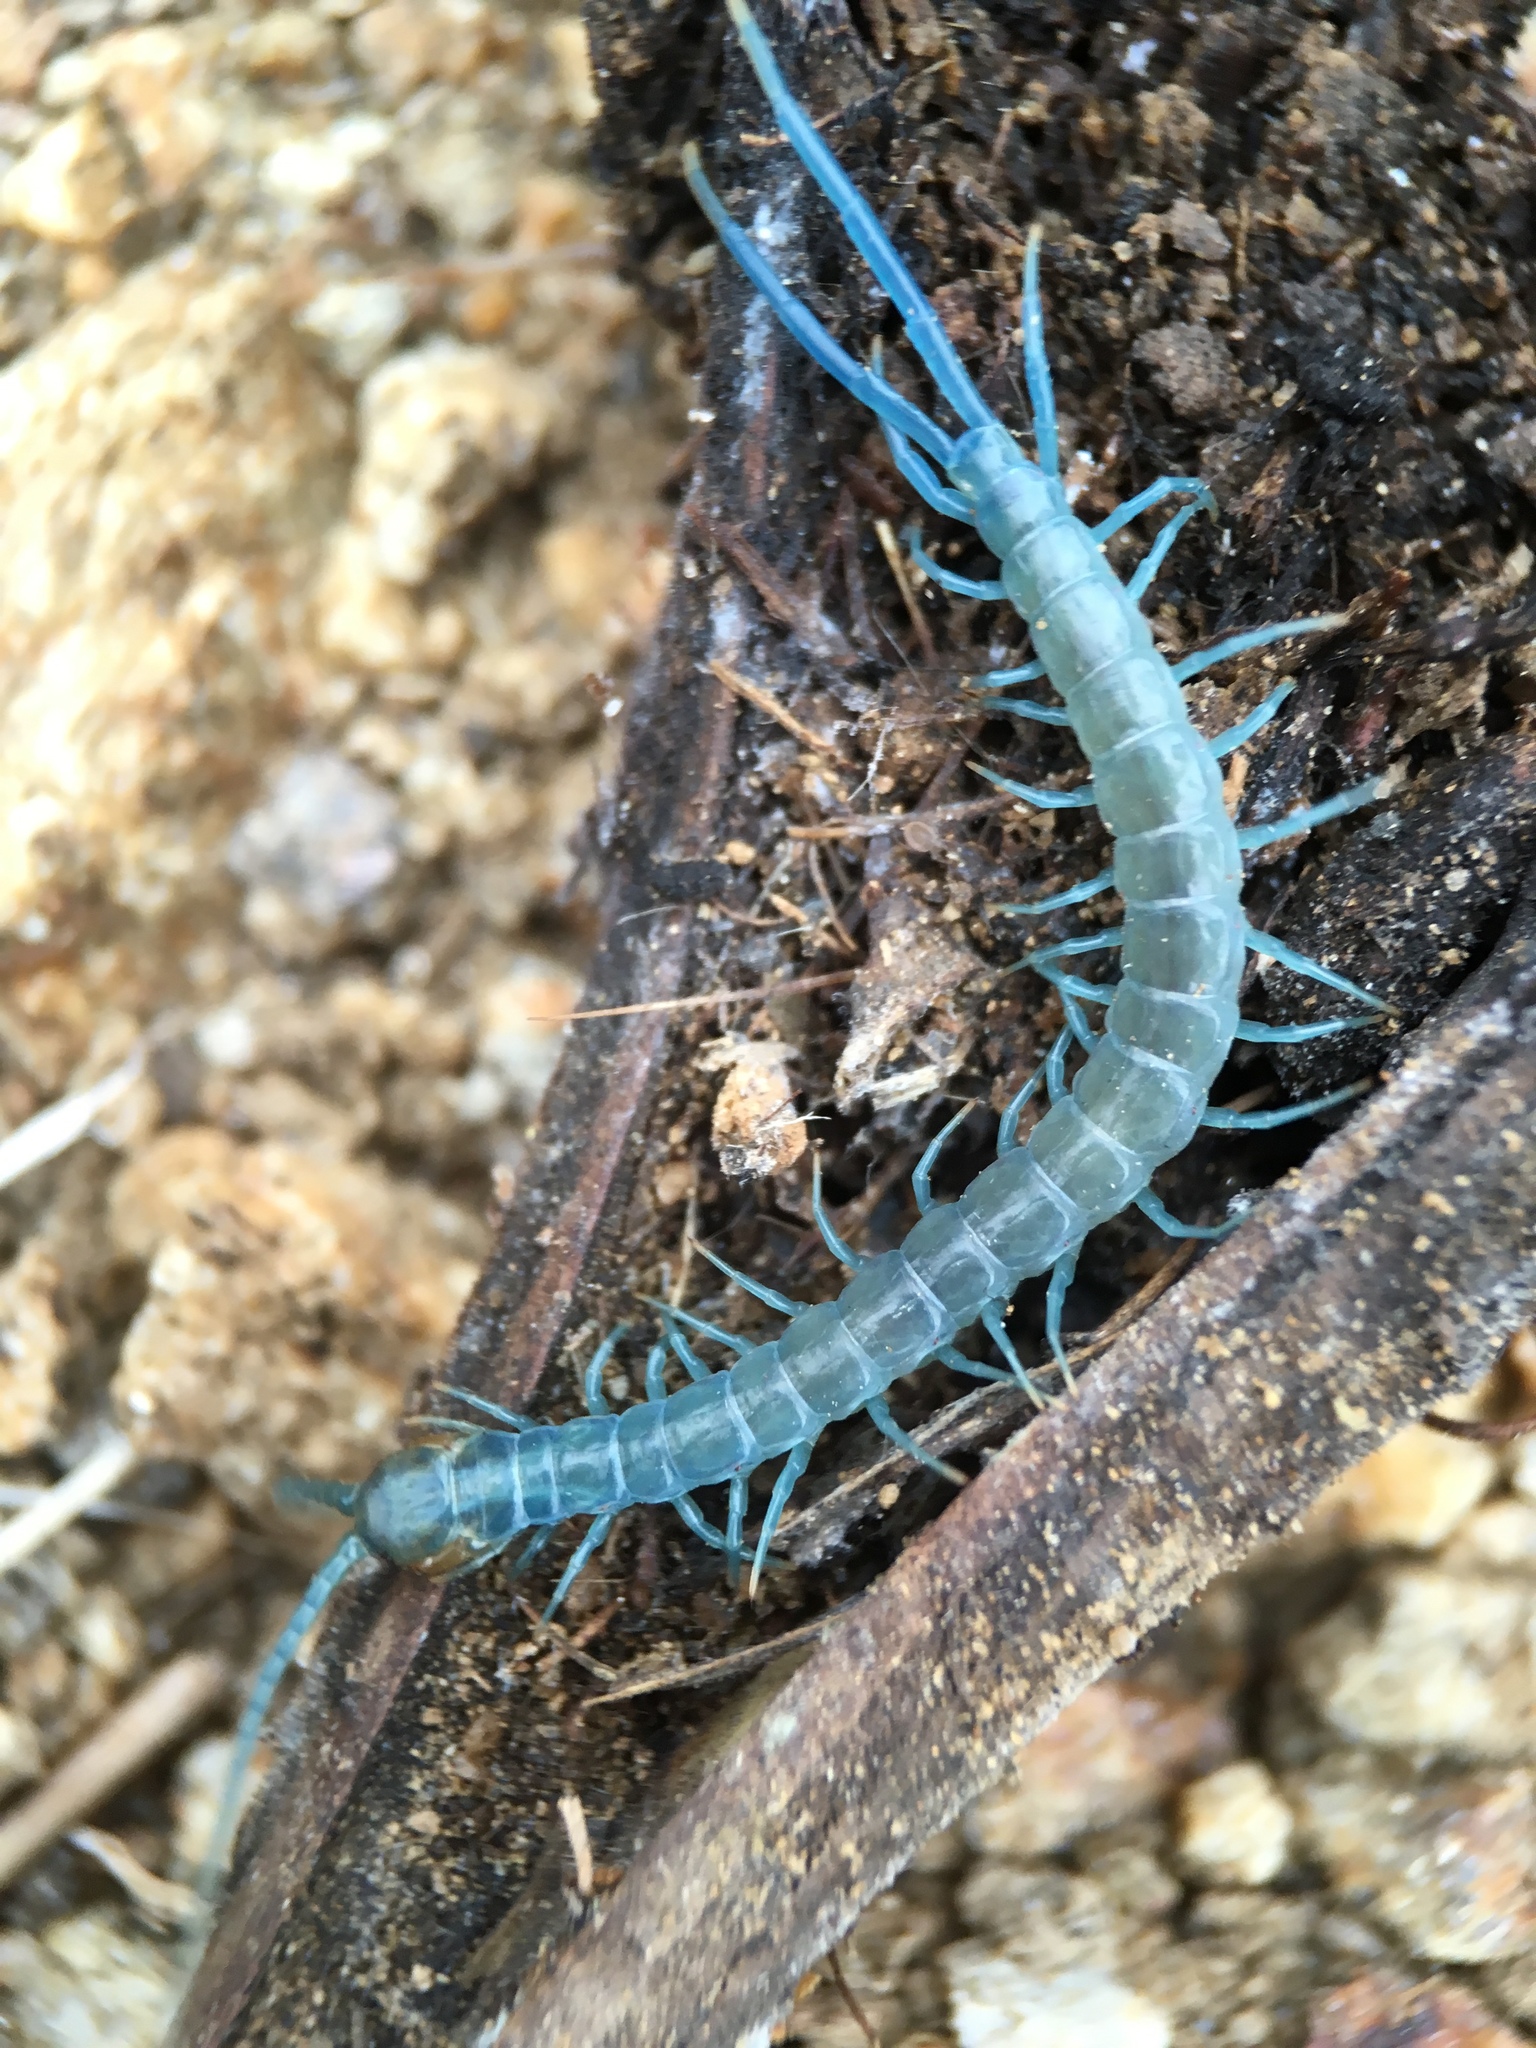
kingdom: Animalia
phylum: Arthropoda
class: Chilopoda
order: Scolopendromorpha
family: Scolopendridae
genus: Scolopendra
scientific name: Scolopendra aztecorum
